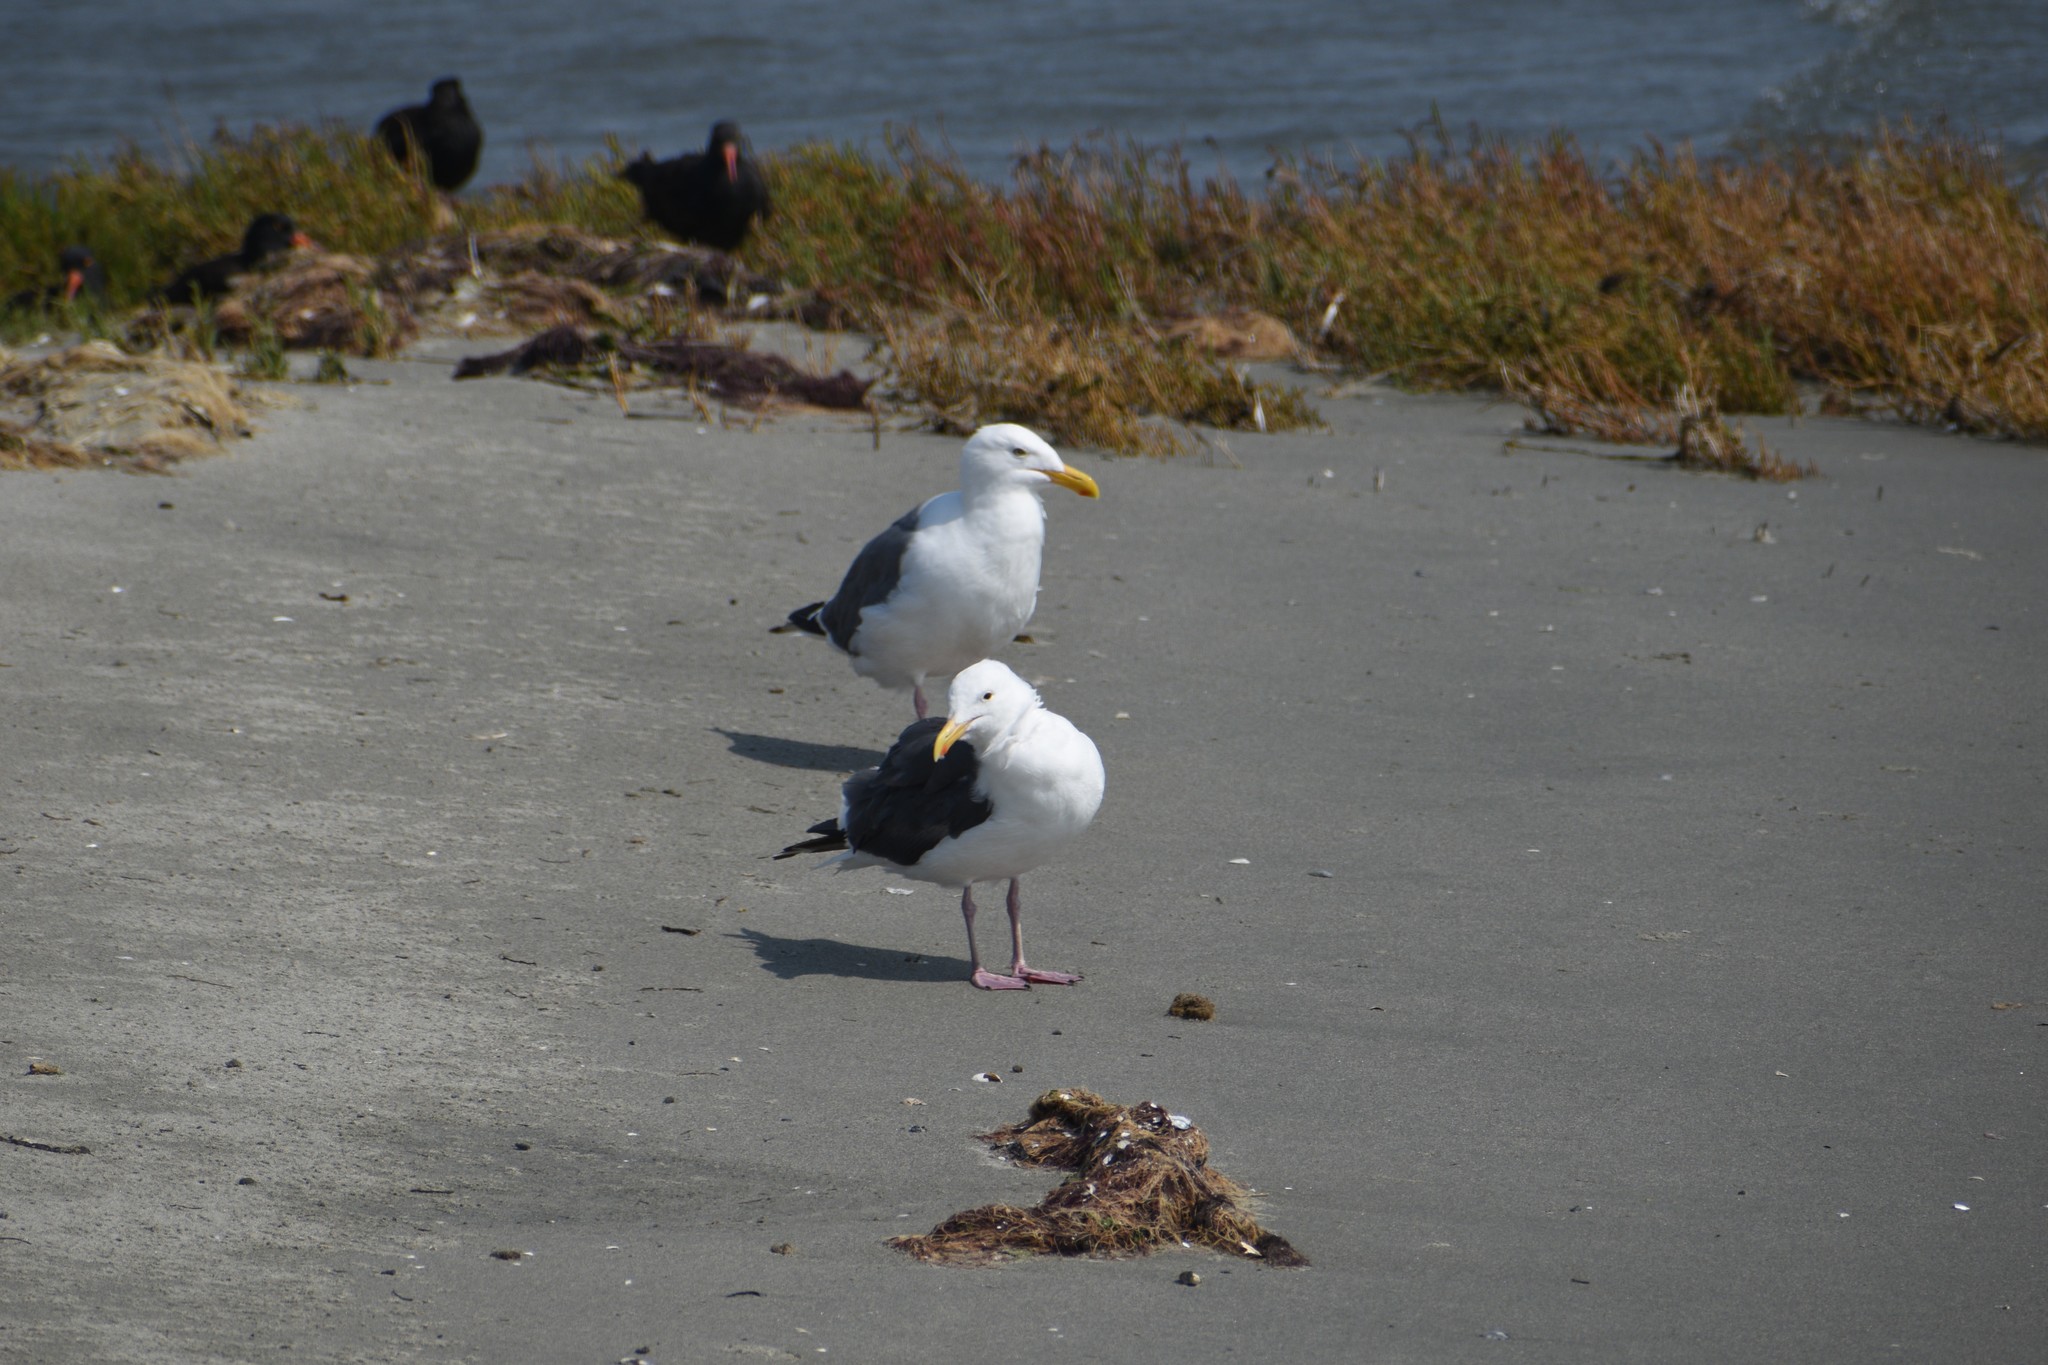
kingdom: Animalia
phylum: Chordata
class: Aves
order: Charadriiformes
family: Laridae
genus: Larus
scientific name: Larus occidentalis
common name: Western gull
